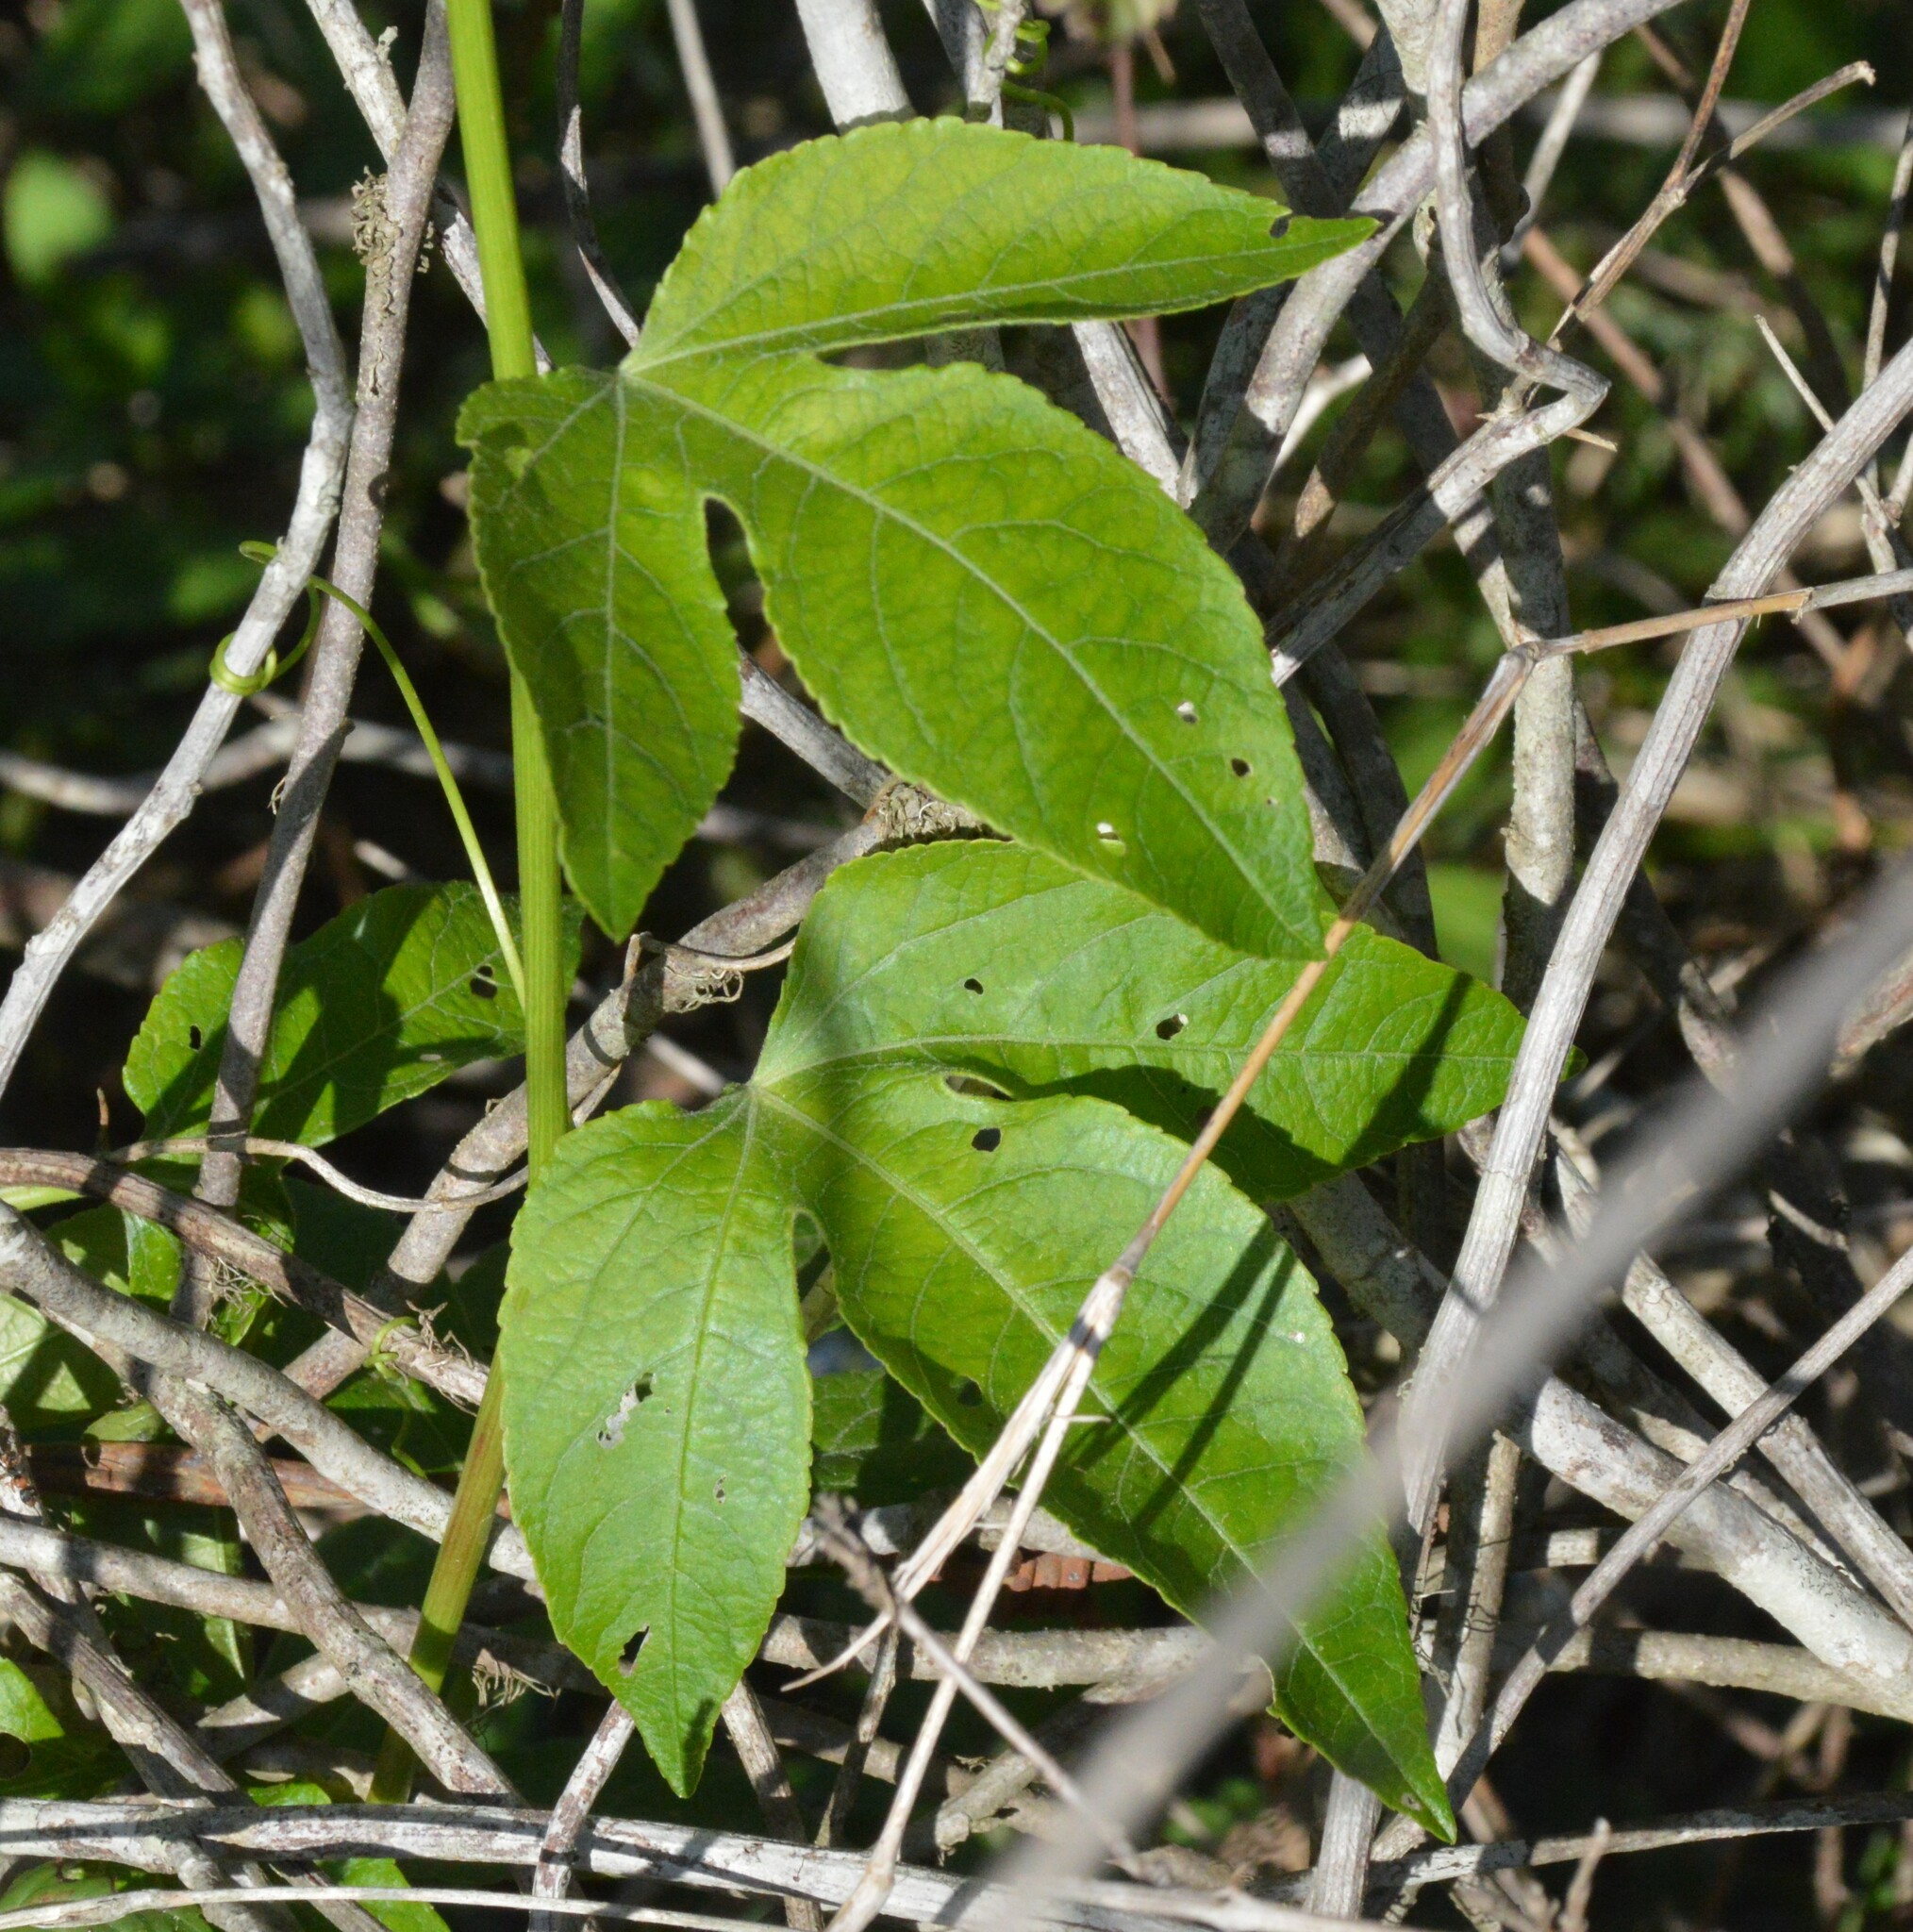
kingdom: Plantae
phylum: Tracheophyta
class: Magnoliopsida
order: Malpighiales
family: Passifloraceae
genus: Passiflora
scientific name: Passiflora incarnata
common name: Apricot-vine
